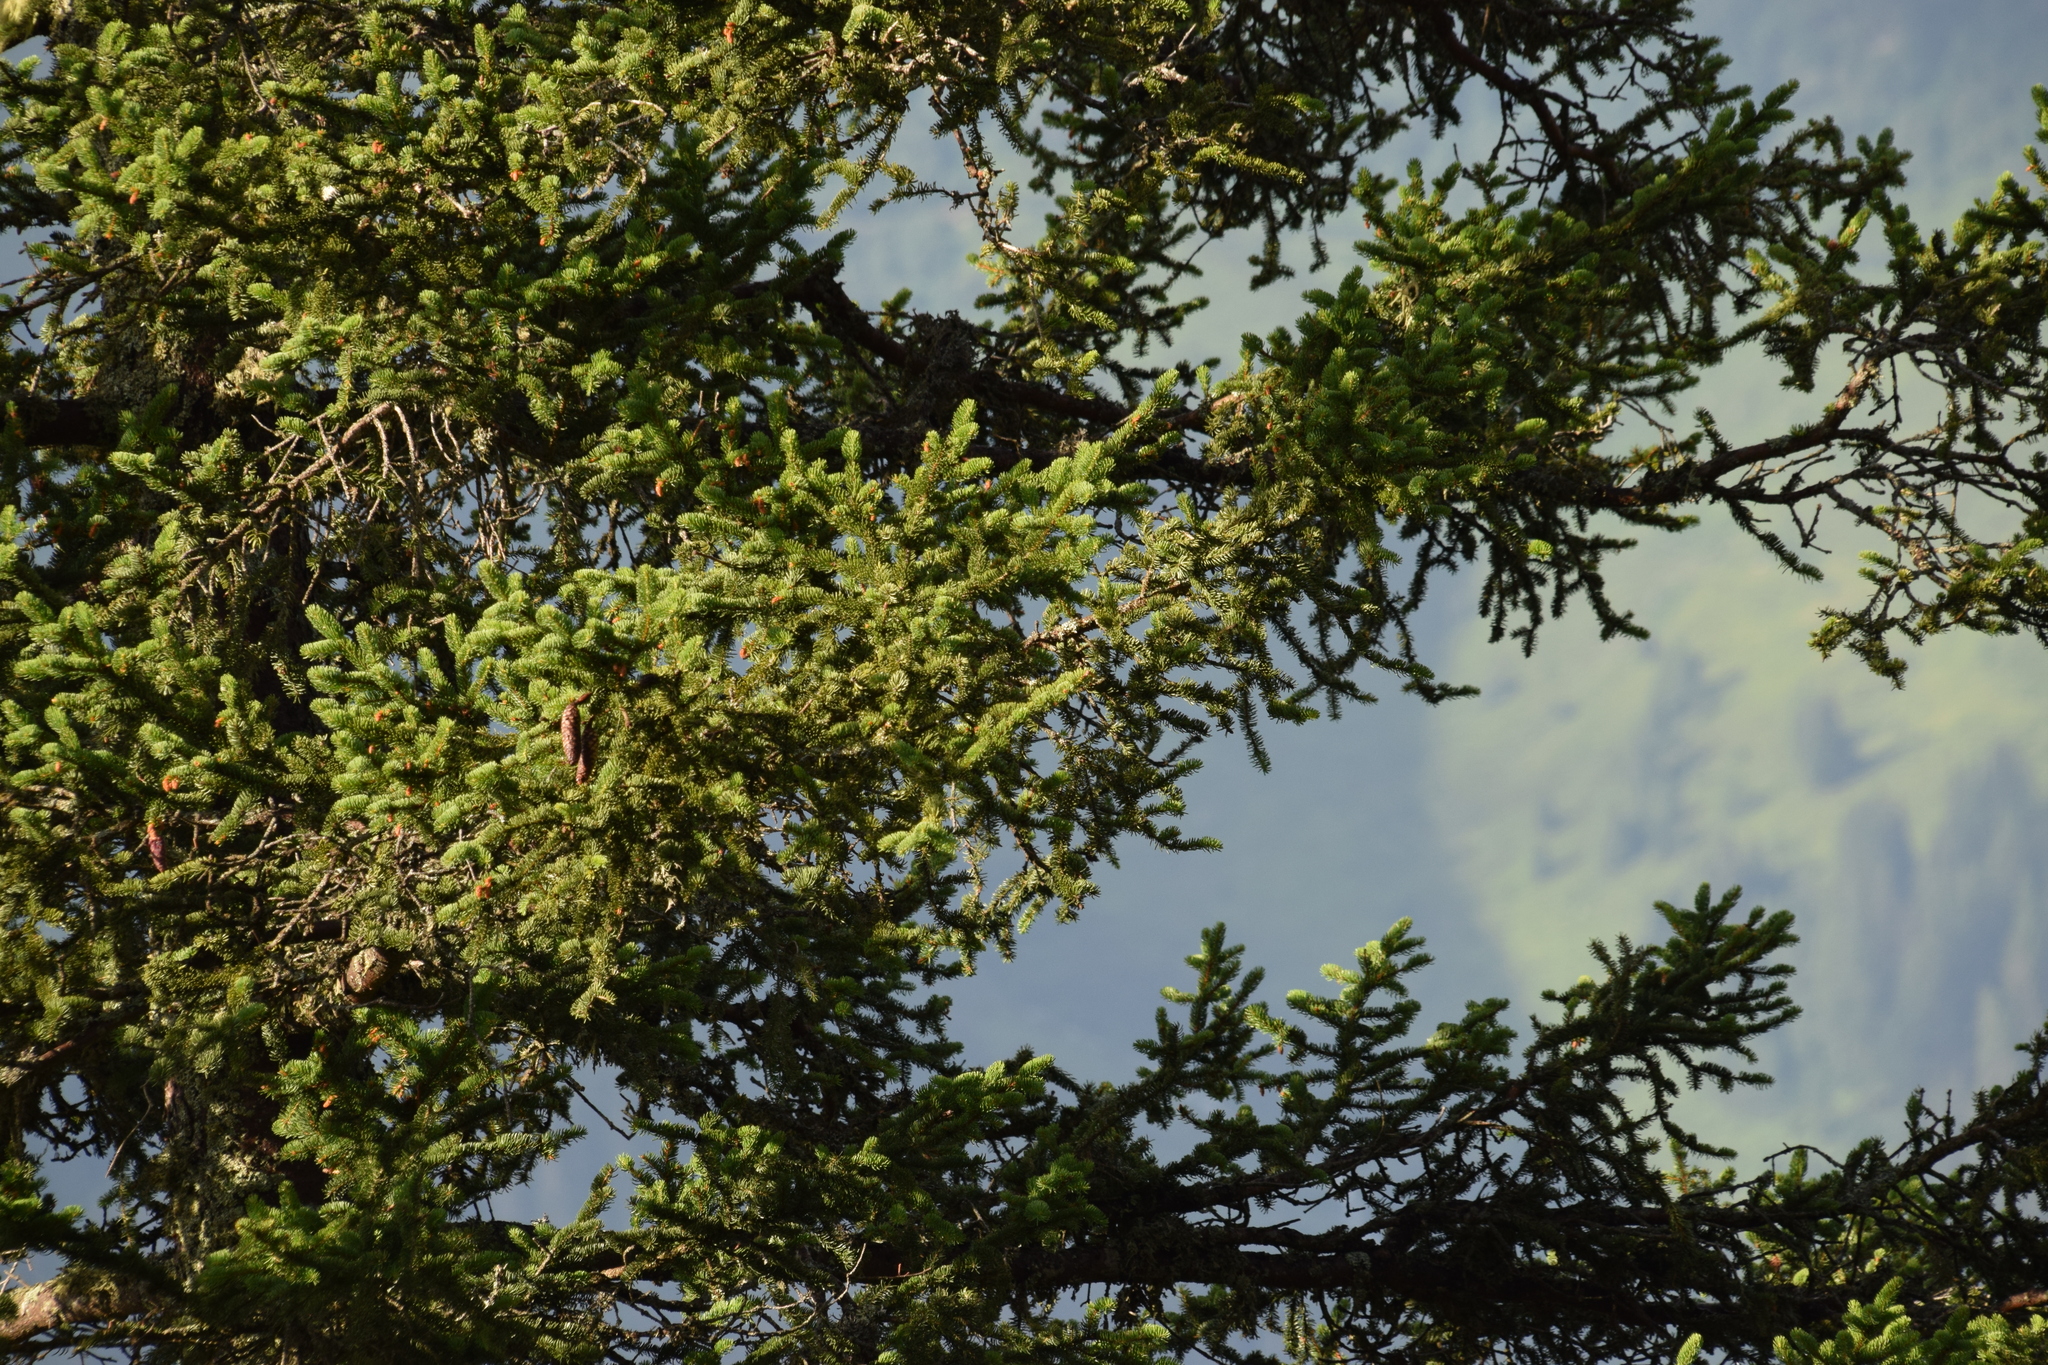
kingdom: Plantae
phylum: Tracheophyta
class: Pinopsida
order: Pinales
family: Pinaceae
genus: Picea
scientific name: Picea abies
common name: Norway spruce
